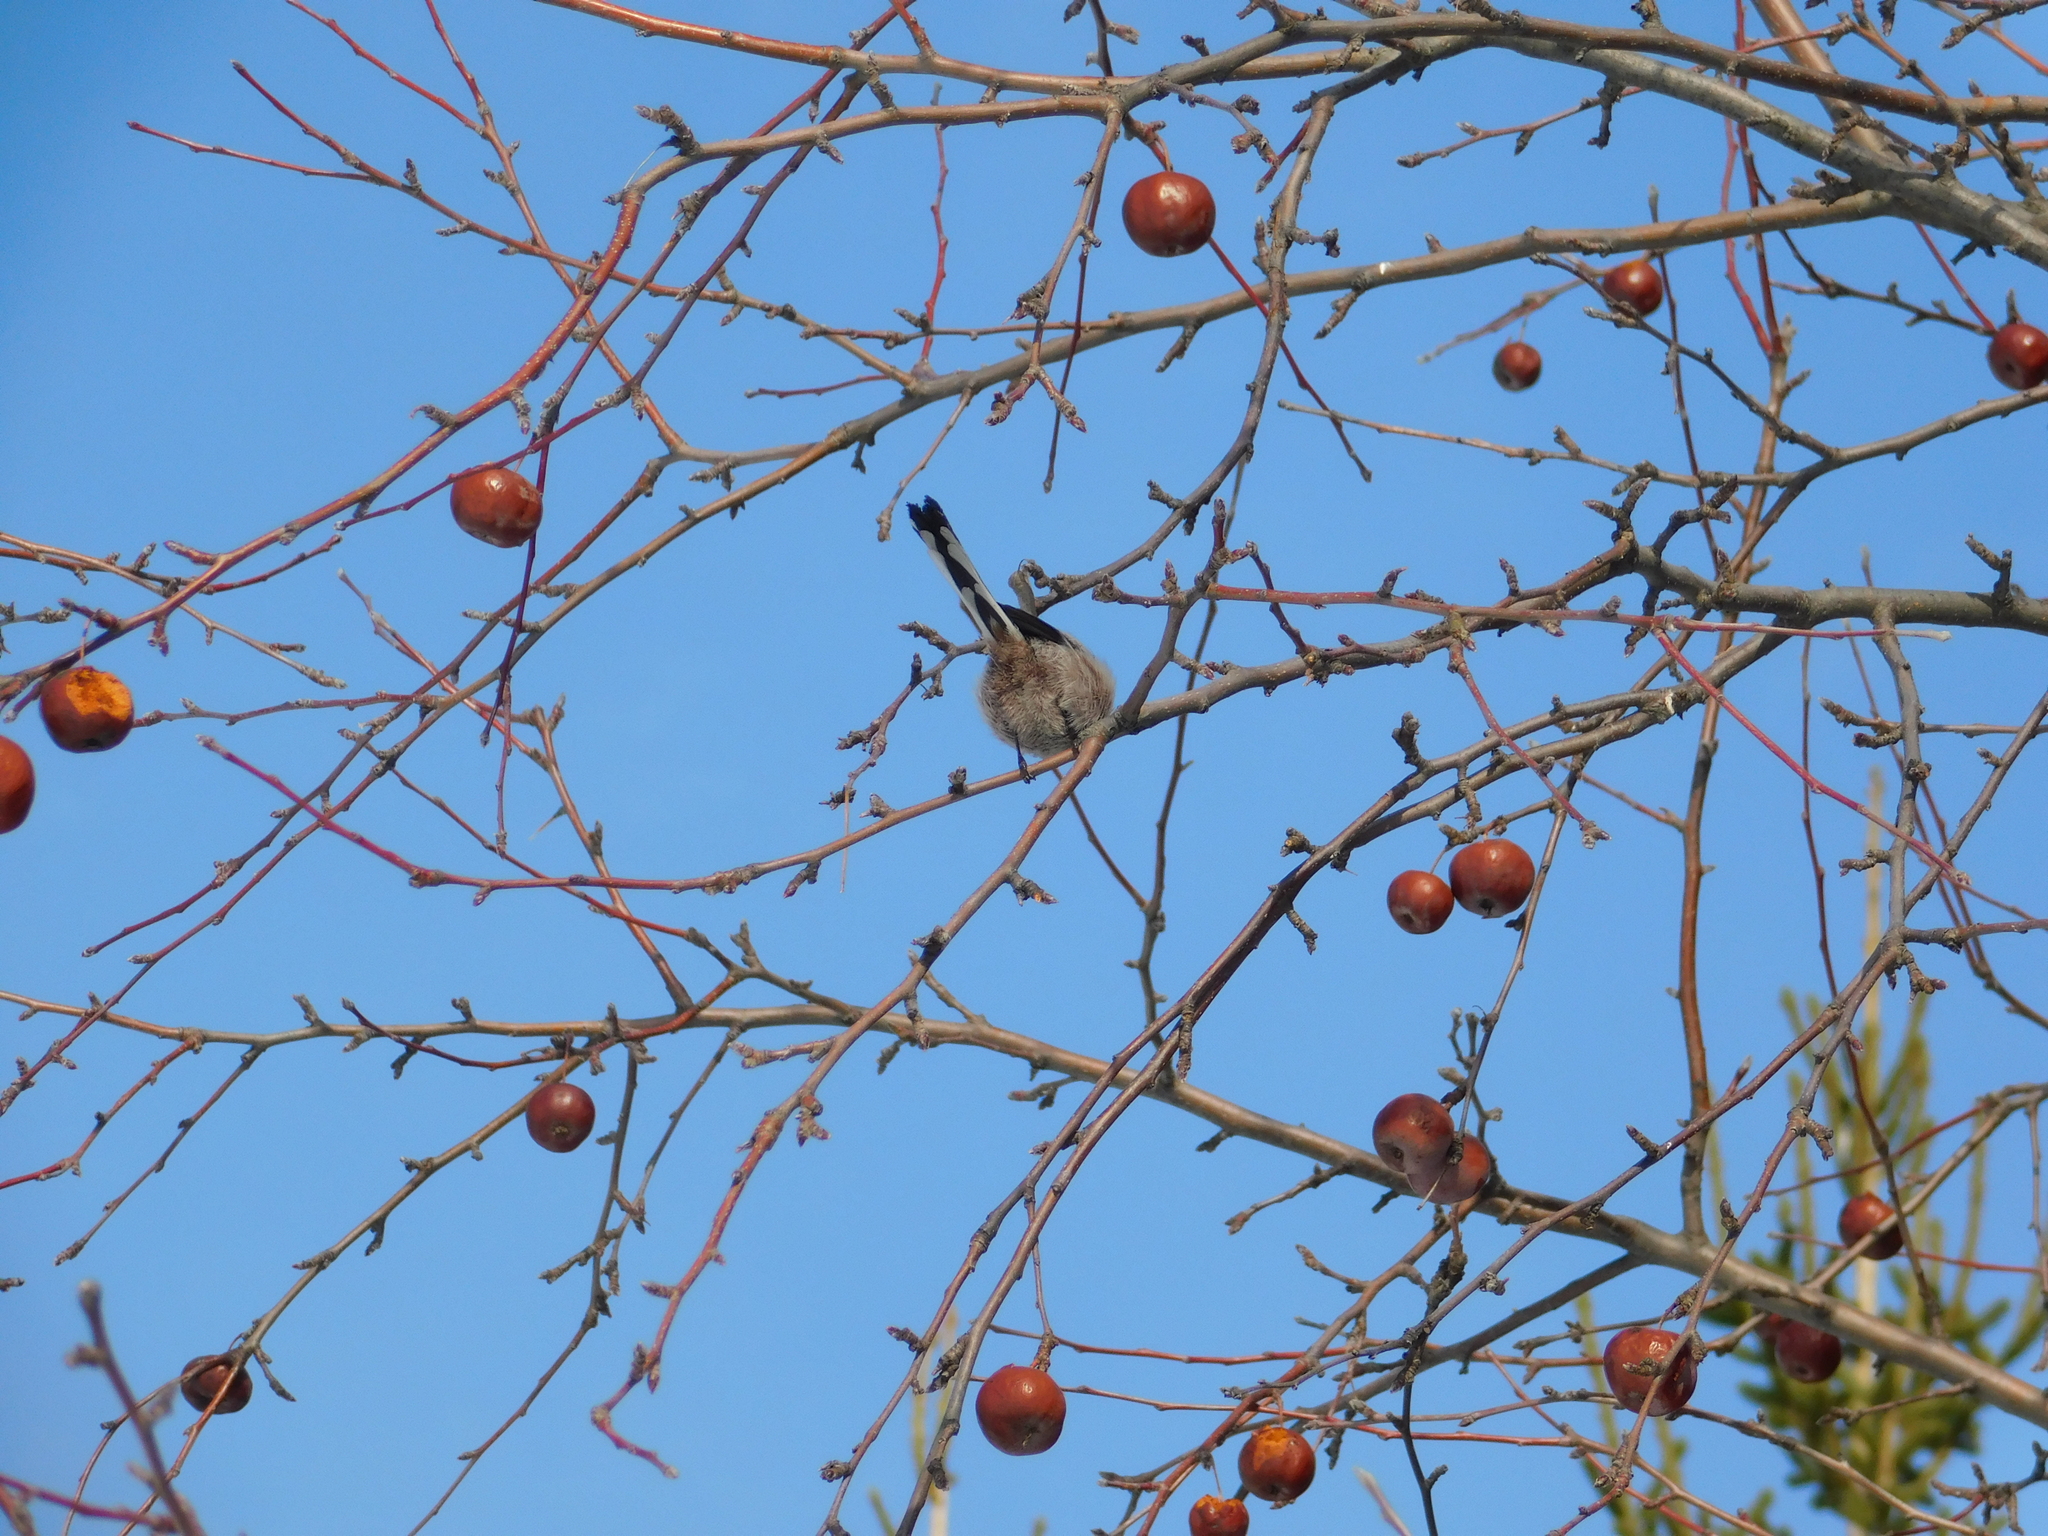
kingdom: Animalia
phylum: Chordata
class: Aves
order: Passeriformes
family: Aegithalidae
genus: Aegithalos
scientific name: Aegithalos caudatus
